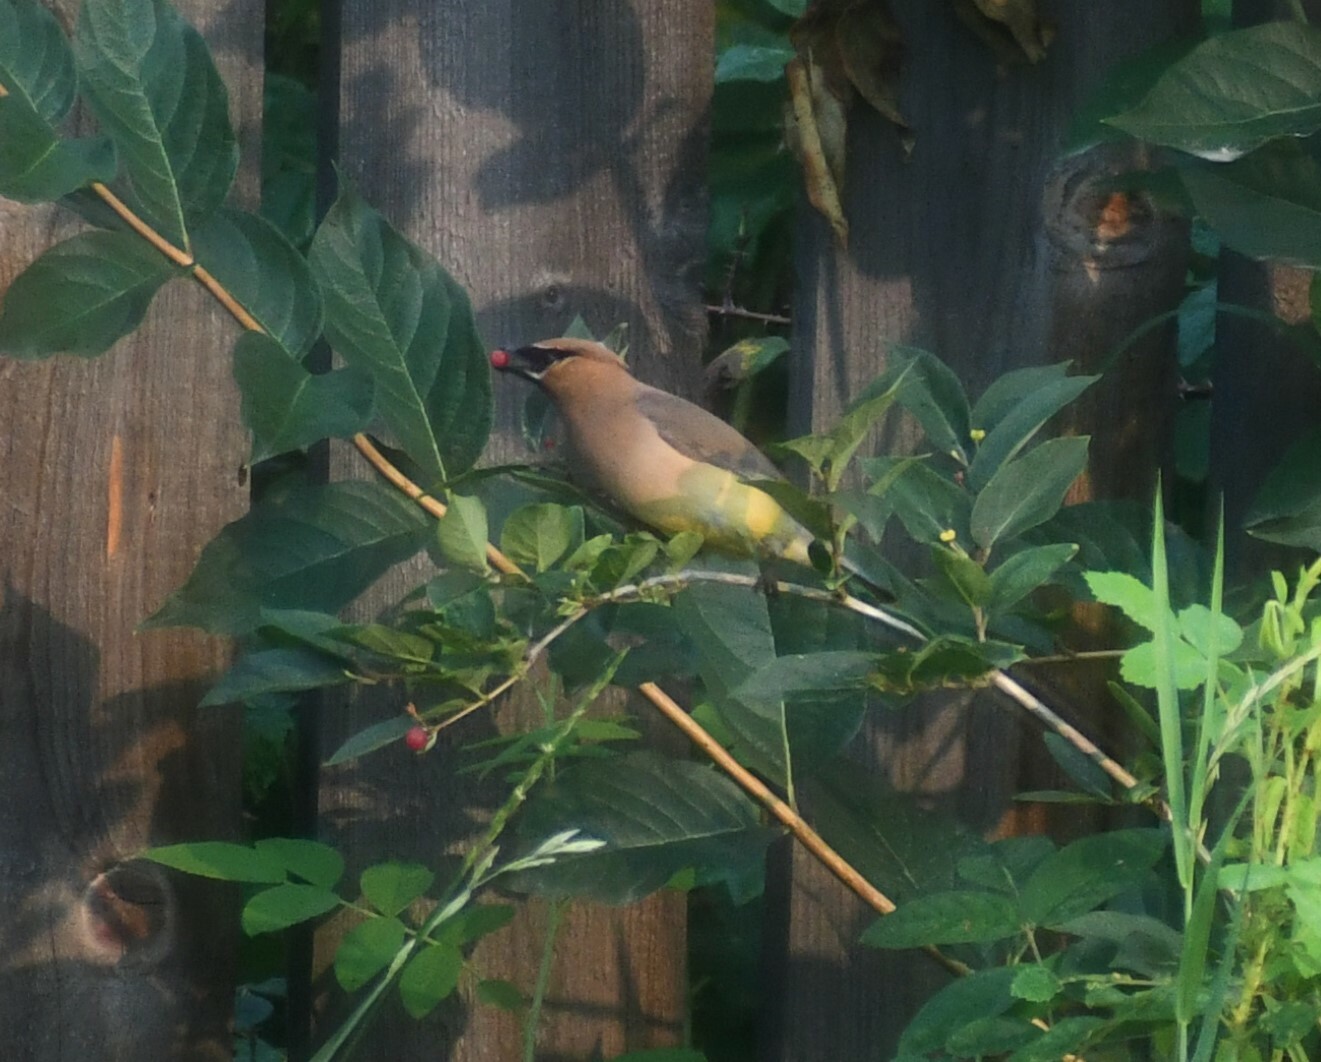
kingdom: Animalia
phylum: Chordata
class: Aves
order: Passeriformes
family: Bombycillidae
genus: Bombycilla
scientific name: Bombycilla cedrorum
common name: Cedar waxwing
